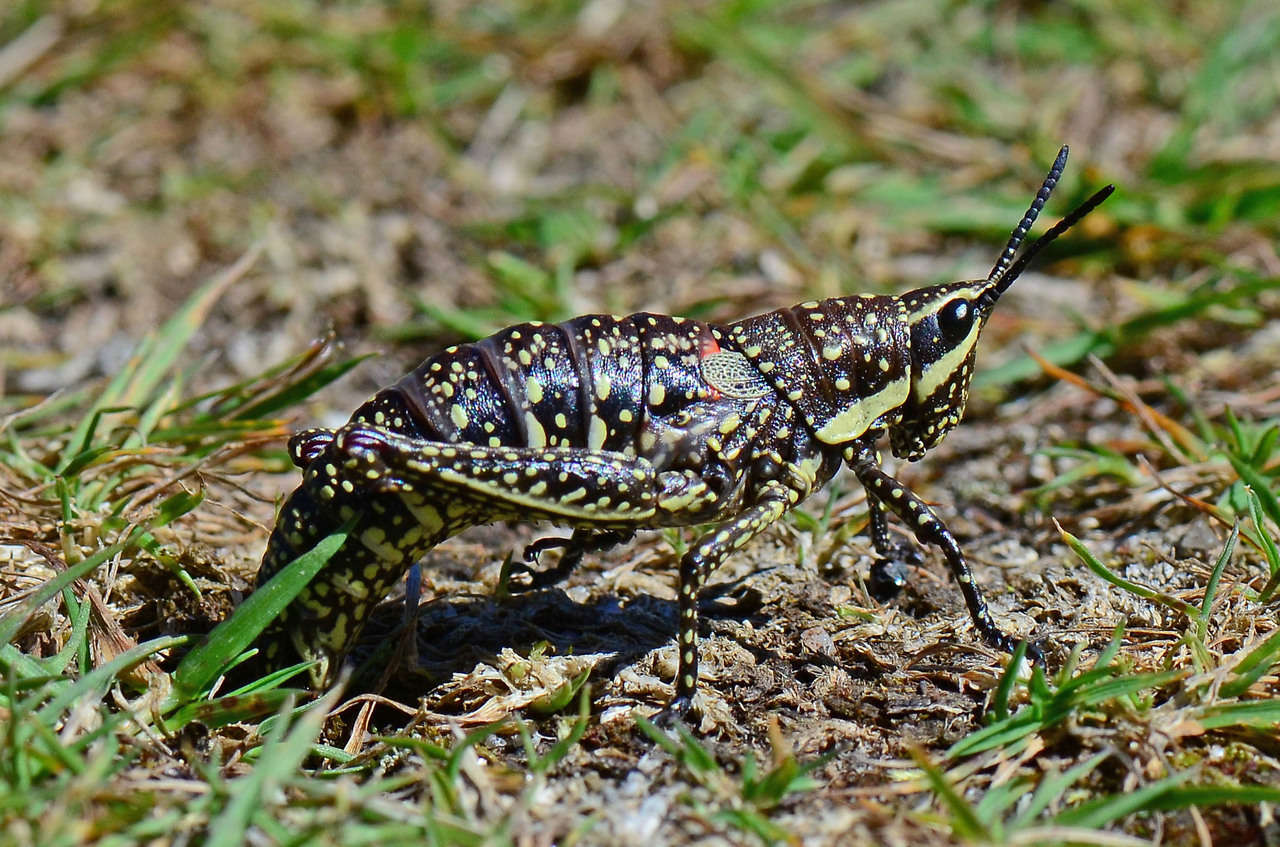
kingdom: Animalia
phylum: Arthropoda
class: Insecta
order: Orthoptera
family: Pyrgomorphidae
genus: Monistria
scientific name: Monistria concinna
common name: Southern pyrgomorph
